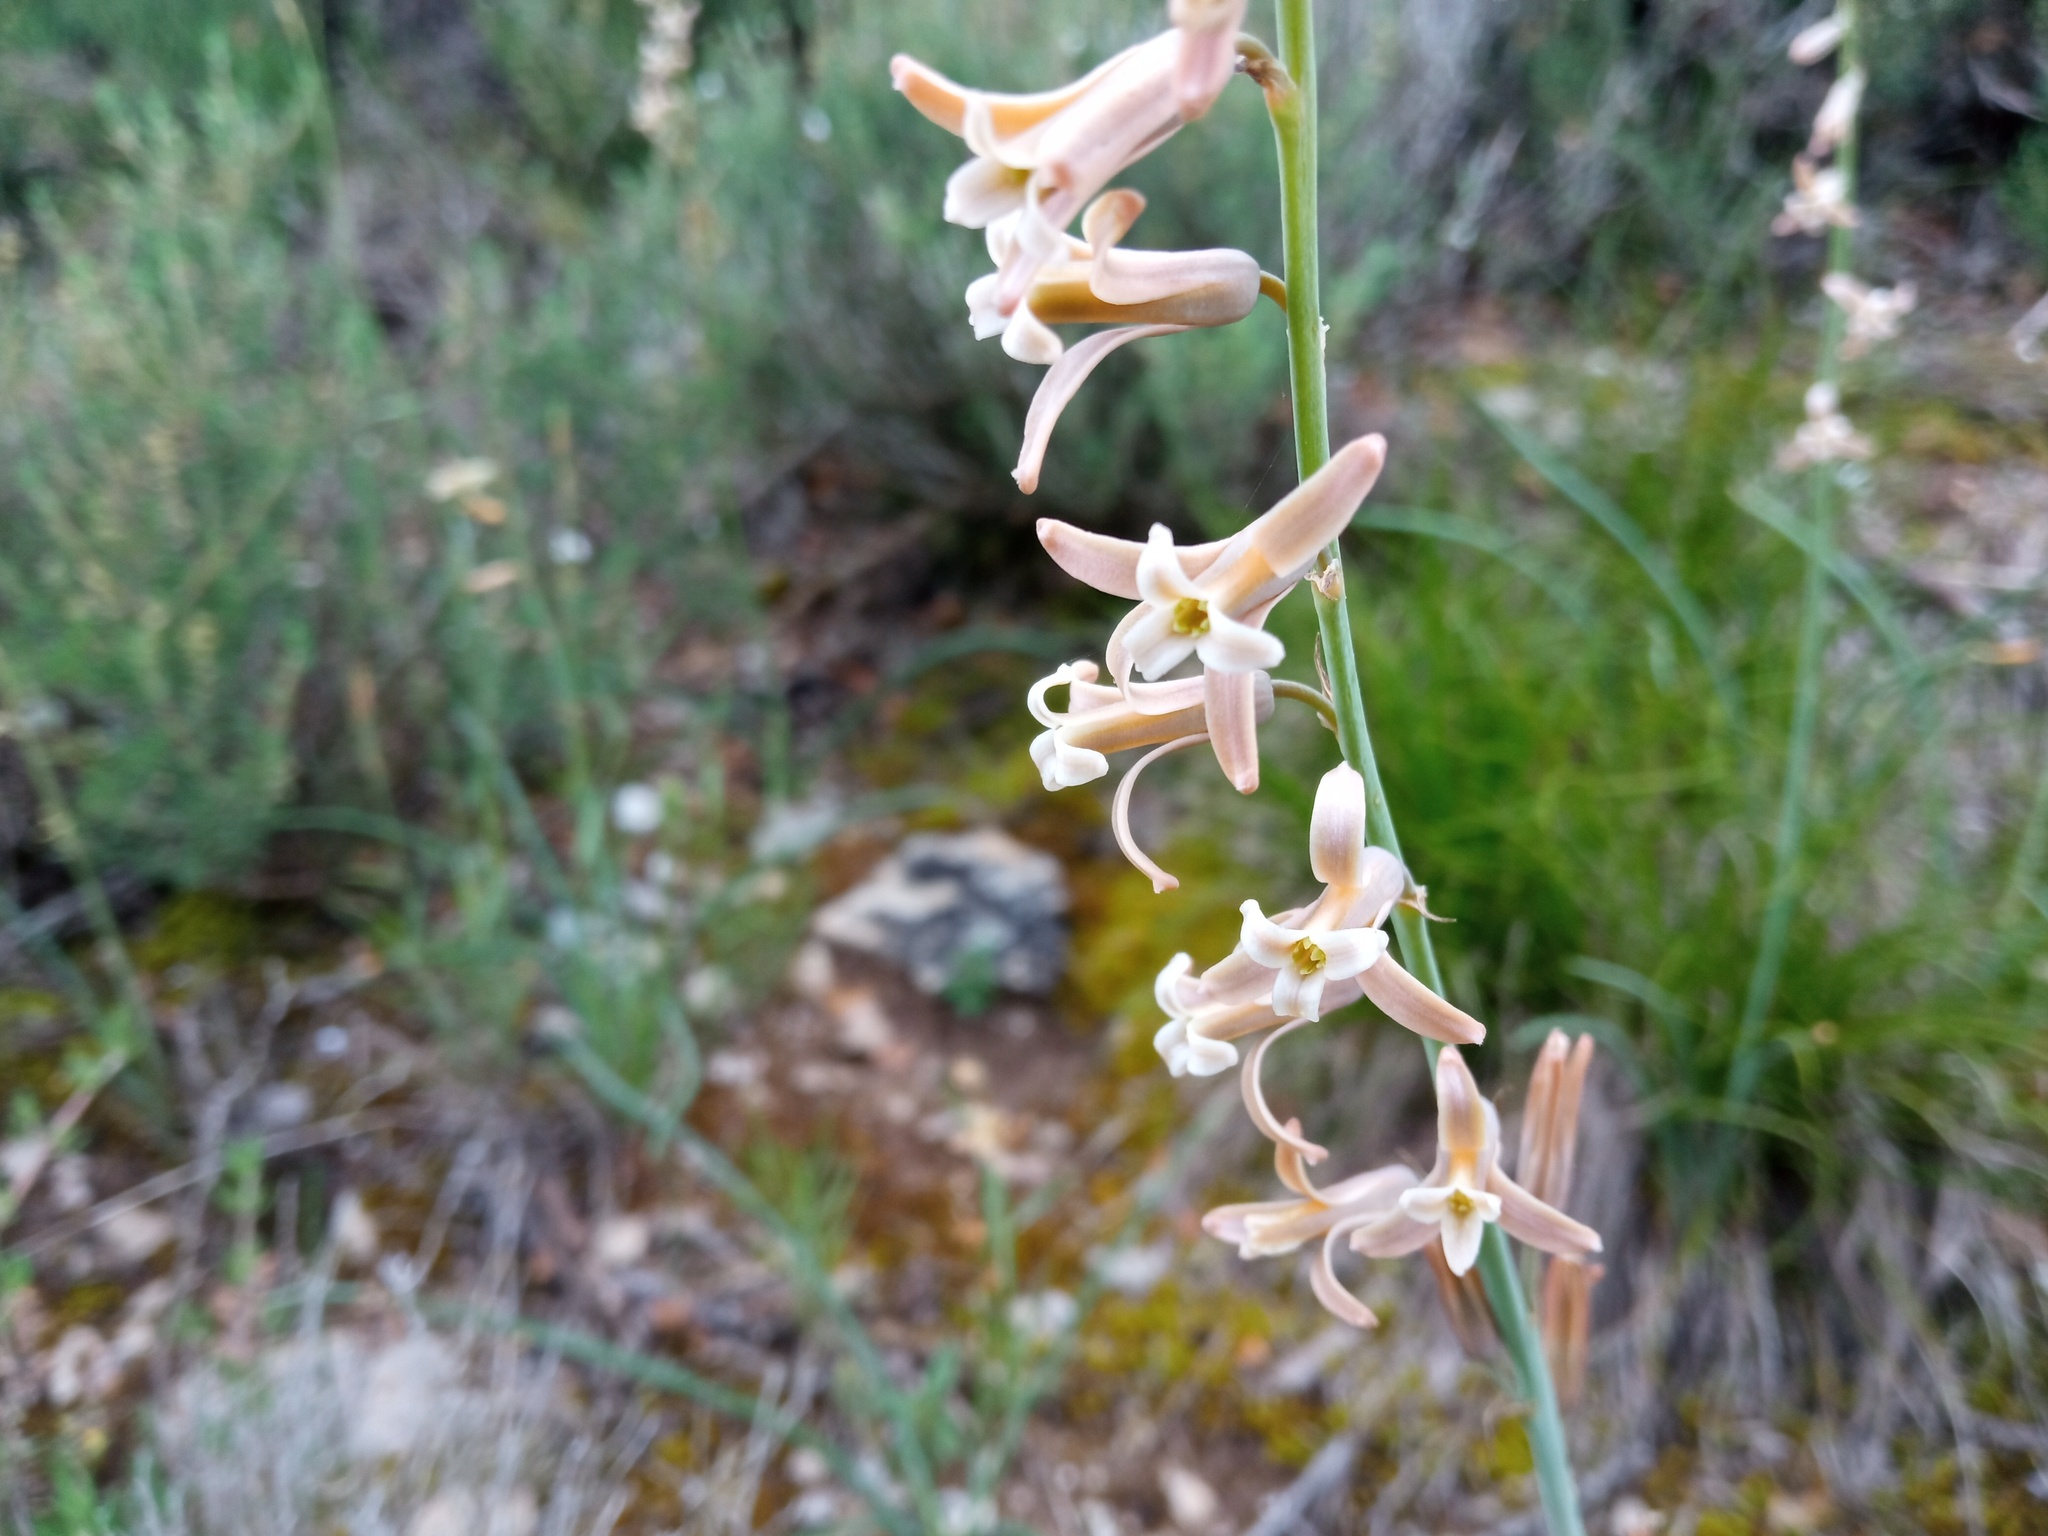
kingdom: Plantae
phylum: Tracheophyta
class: Liliopsida
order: Asparagales
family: Asparagaceae
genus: Dipcadi
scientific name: Dipcadi serotinum
